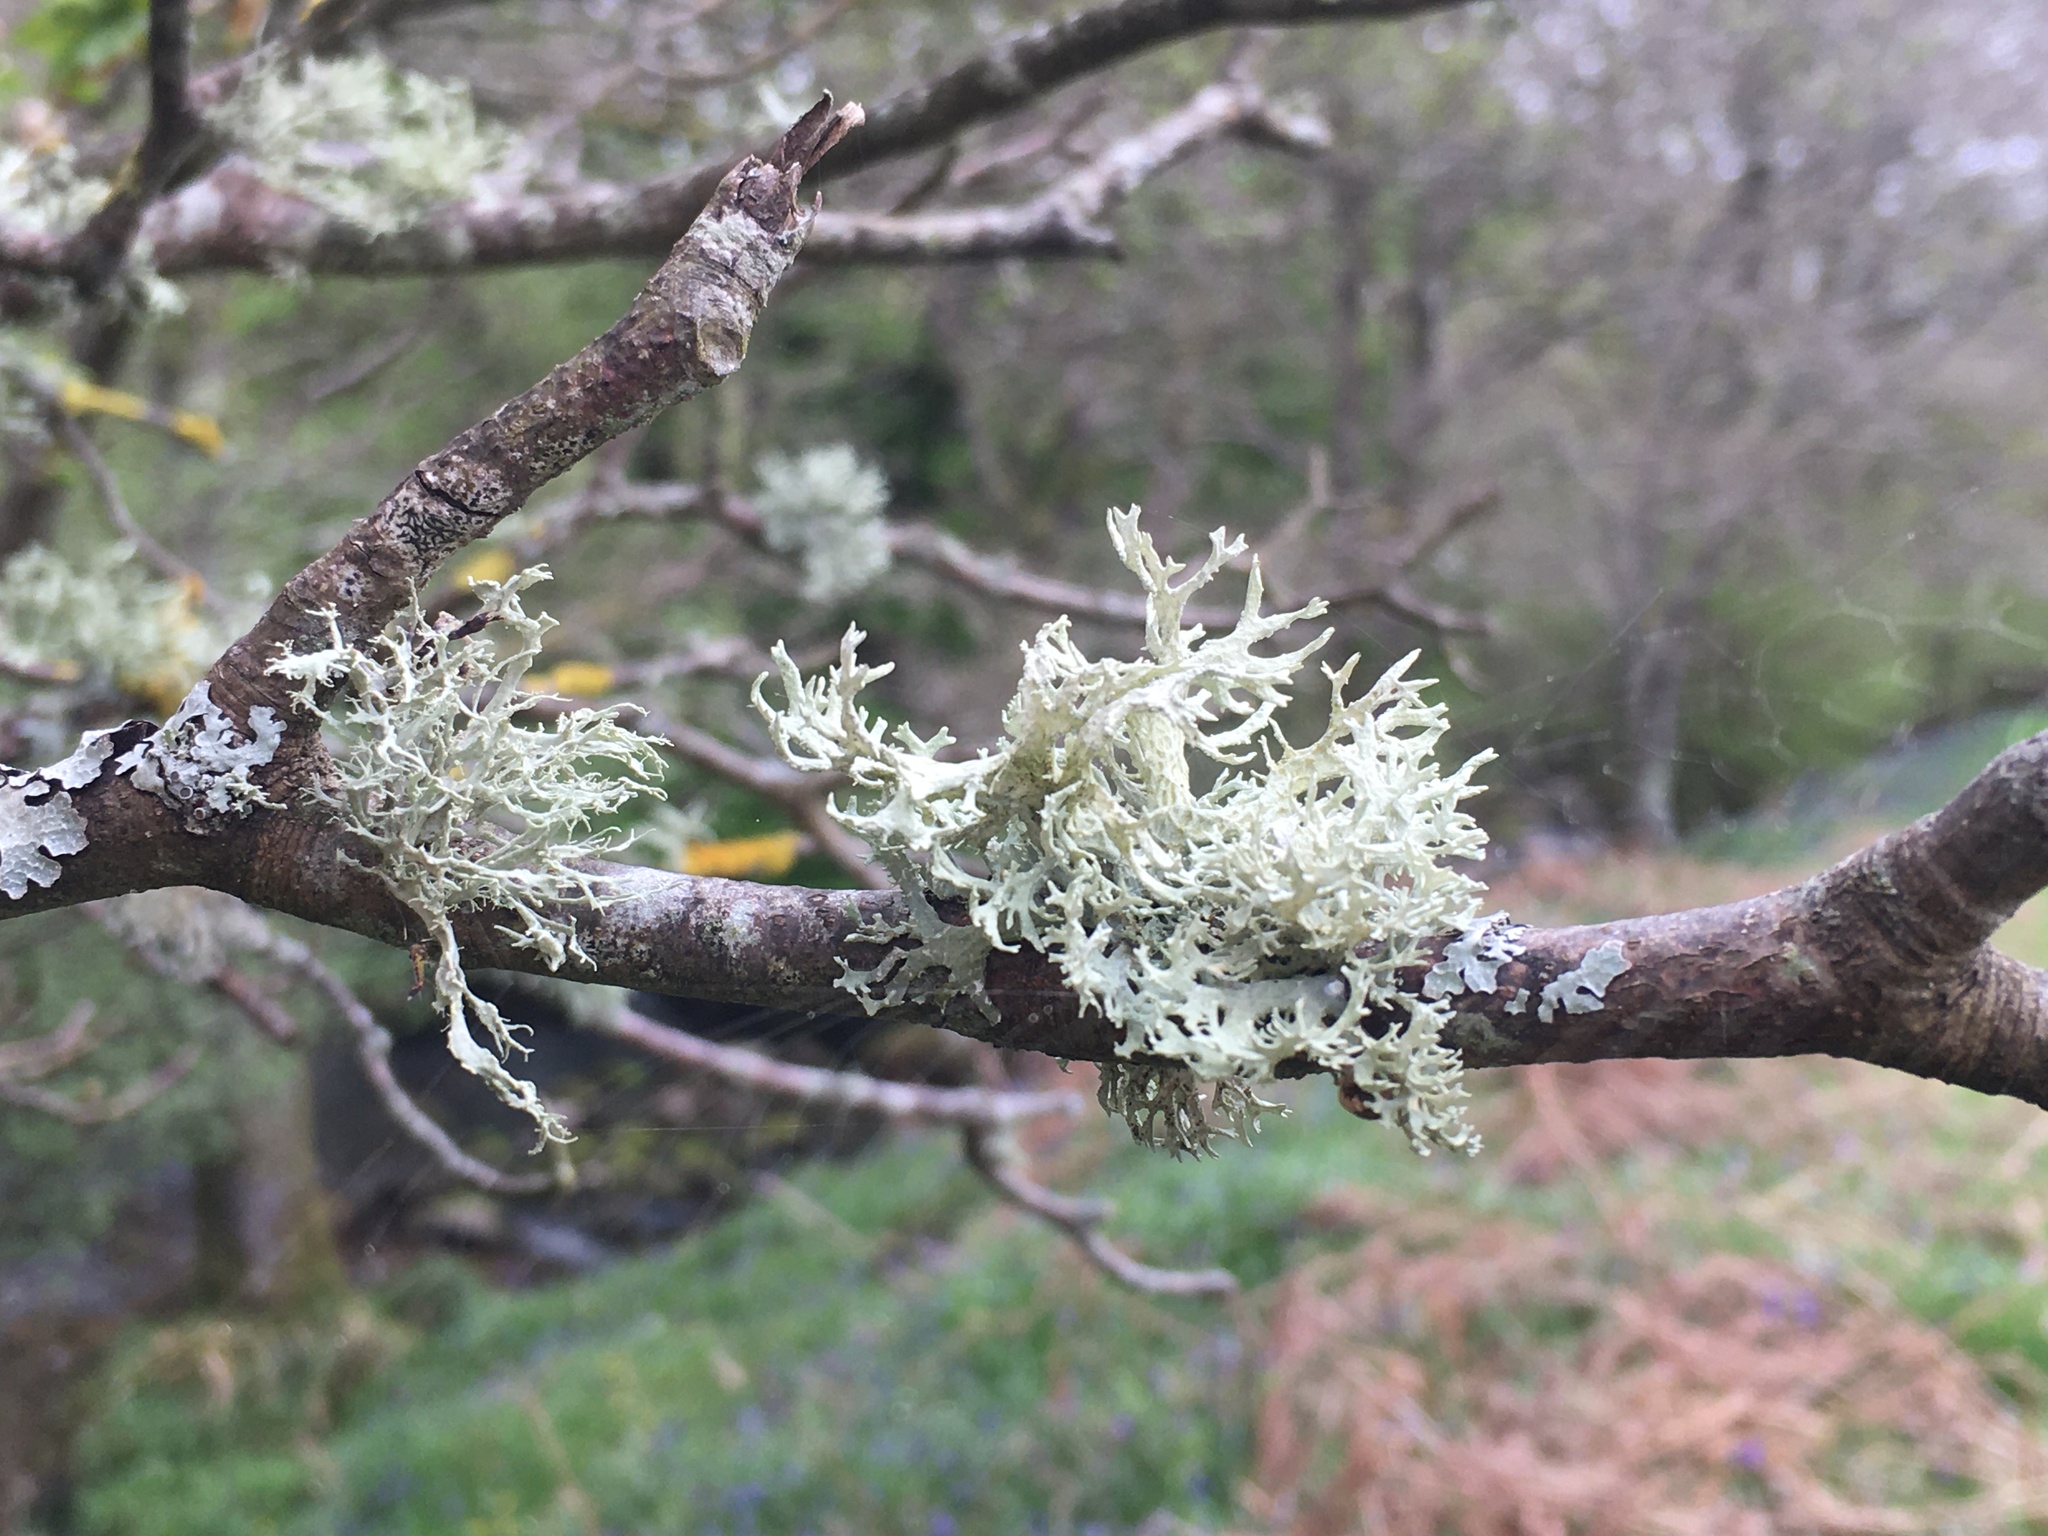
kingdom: Fungi
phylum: Ascomycota
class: Lecanoromycetes
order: Lecanorales
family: Parmeliaceae
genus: Evernia
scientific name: Evernia prunastri
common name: Oak moss
